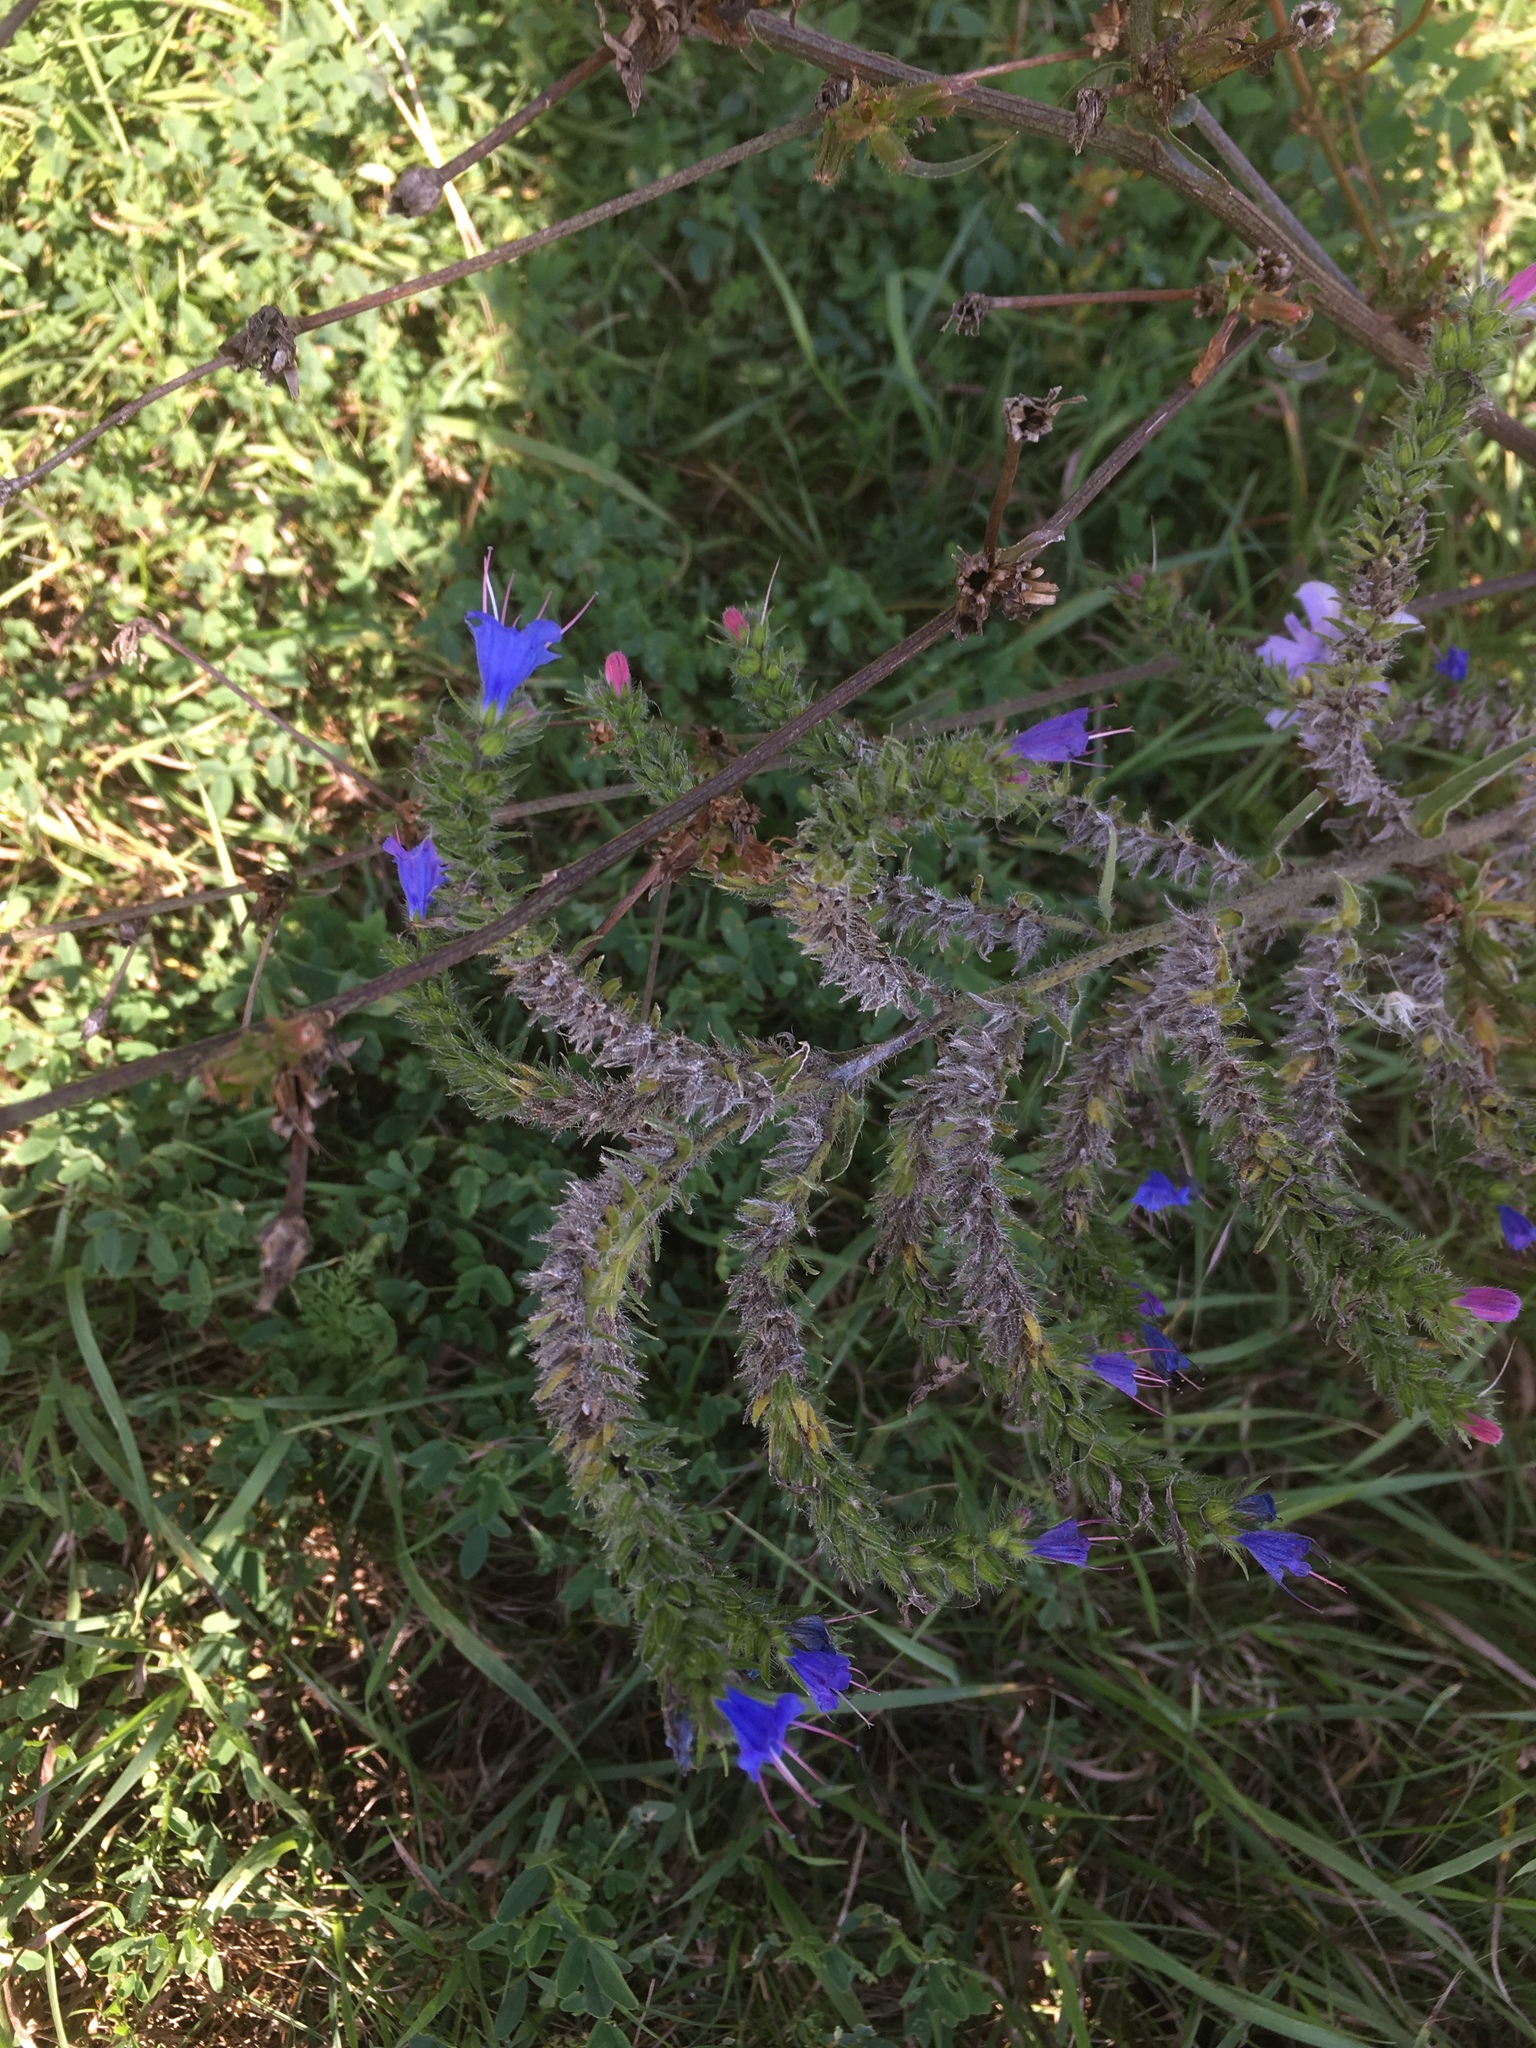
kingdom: Plantae
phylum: Tracheophyta
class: Magnoliopsida
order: Boraginales
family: Boraginaceae
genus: Echium
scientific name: Echium vulgare
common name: Common viper's bugloss
